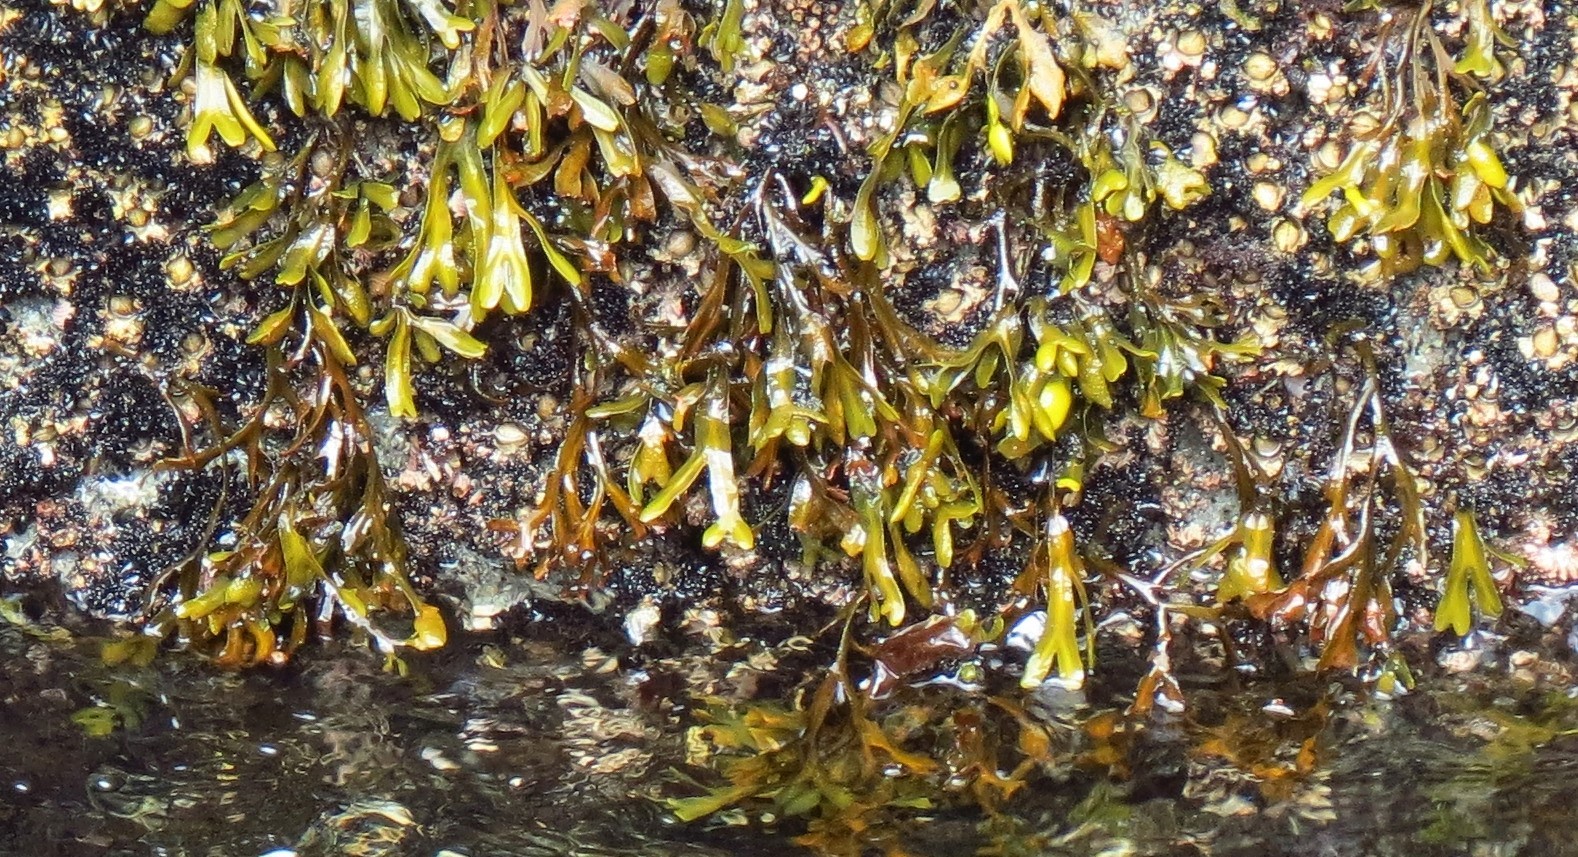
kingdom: Chromista
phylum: Ochrophyta
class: Phaeophyceae
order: Fucales
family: Fucaceae
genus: Fucus
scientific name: Fucus distichus
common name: Rockweed
